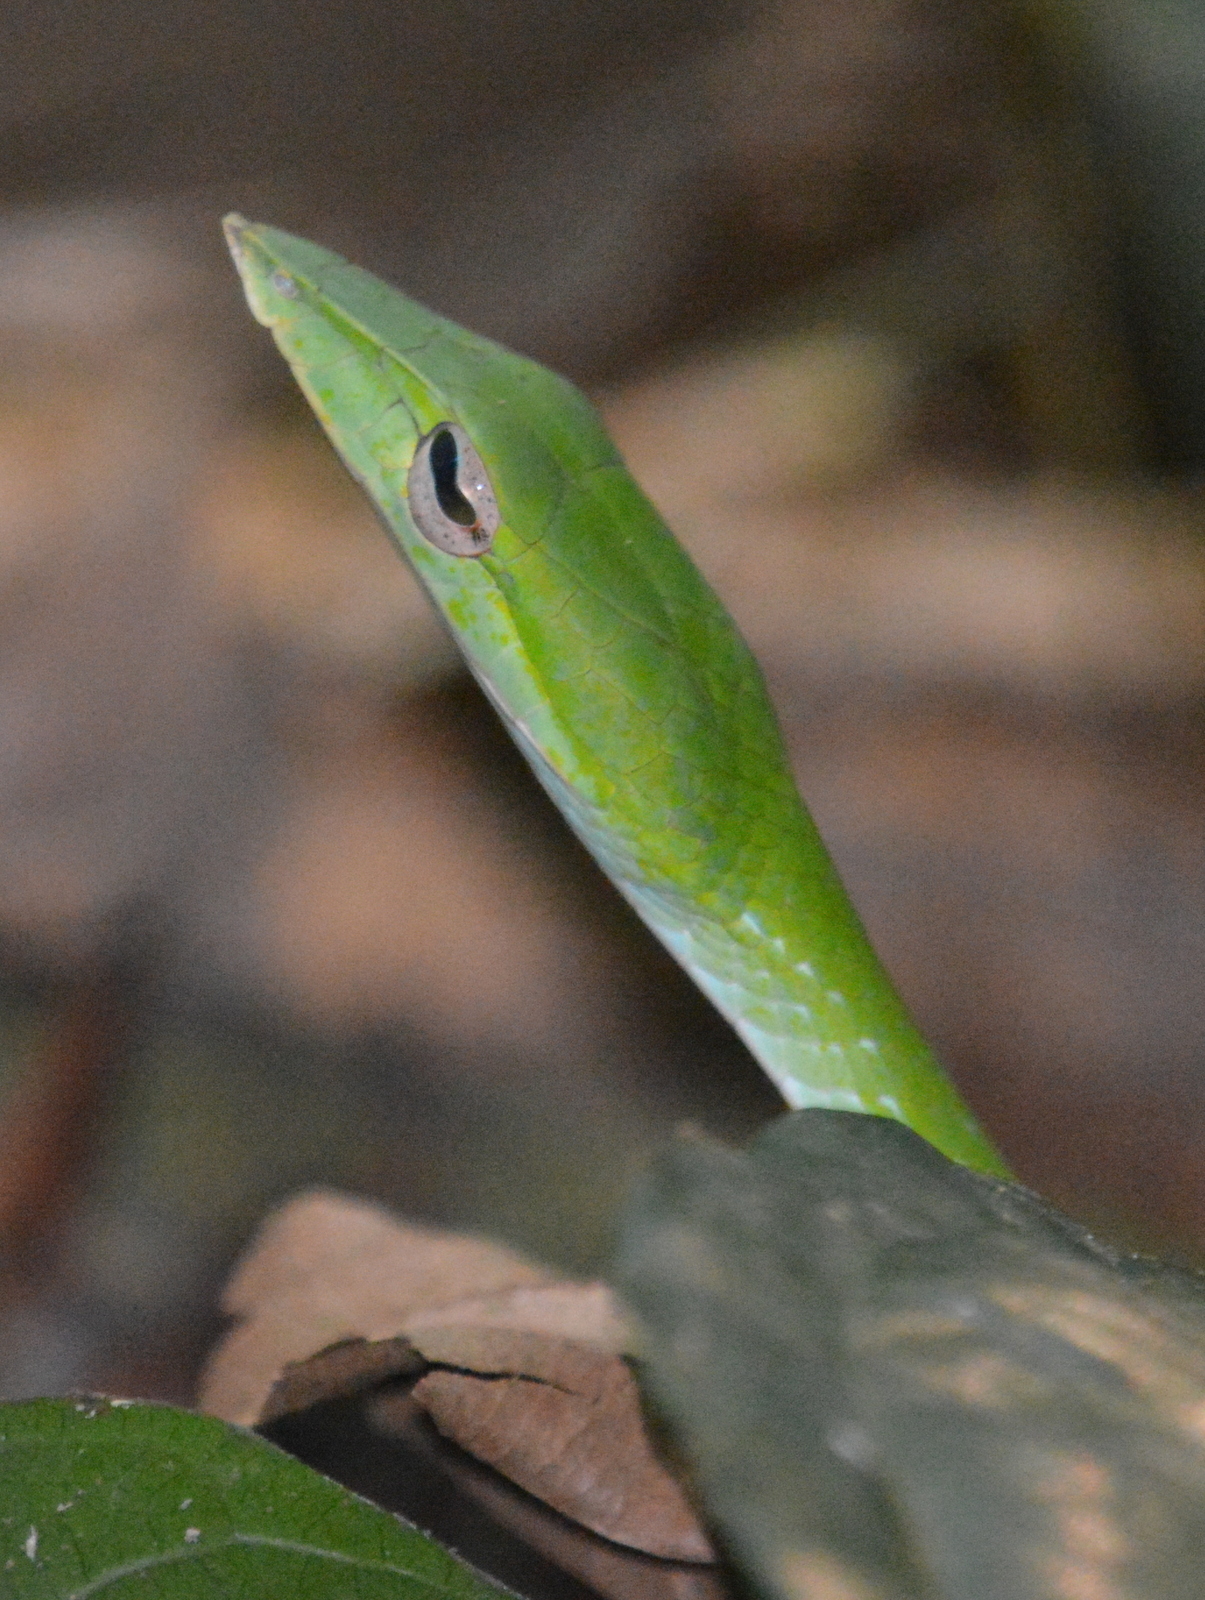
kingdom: Animalia
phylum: Chordata
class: Squamata
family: Colubridae
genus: Ahaetulla
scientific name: Ahaetulla isabellina
